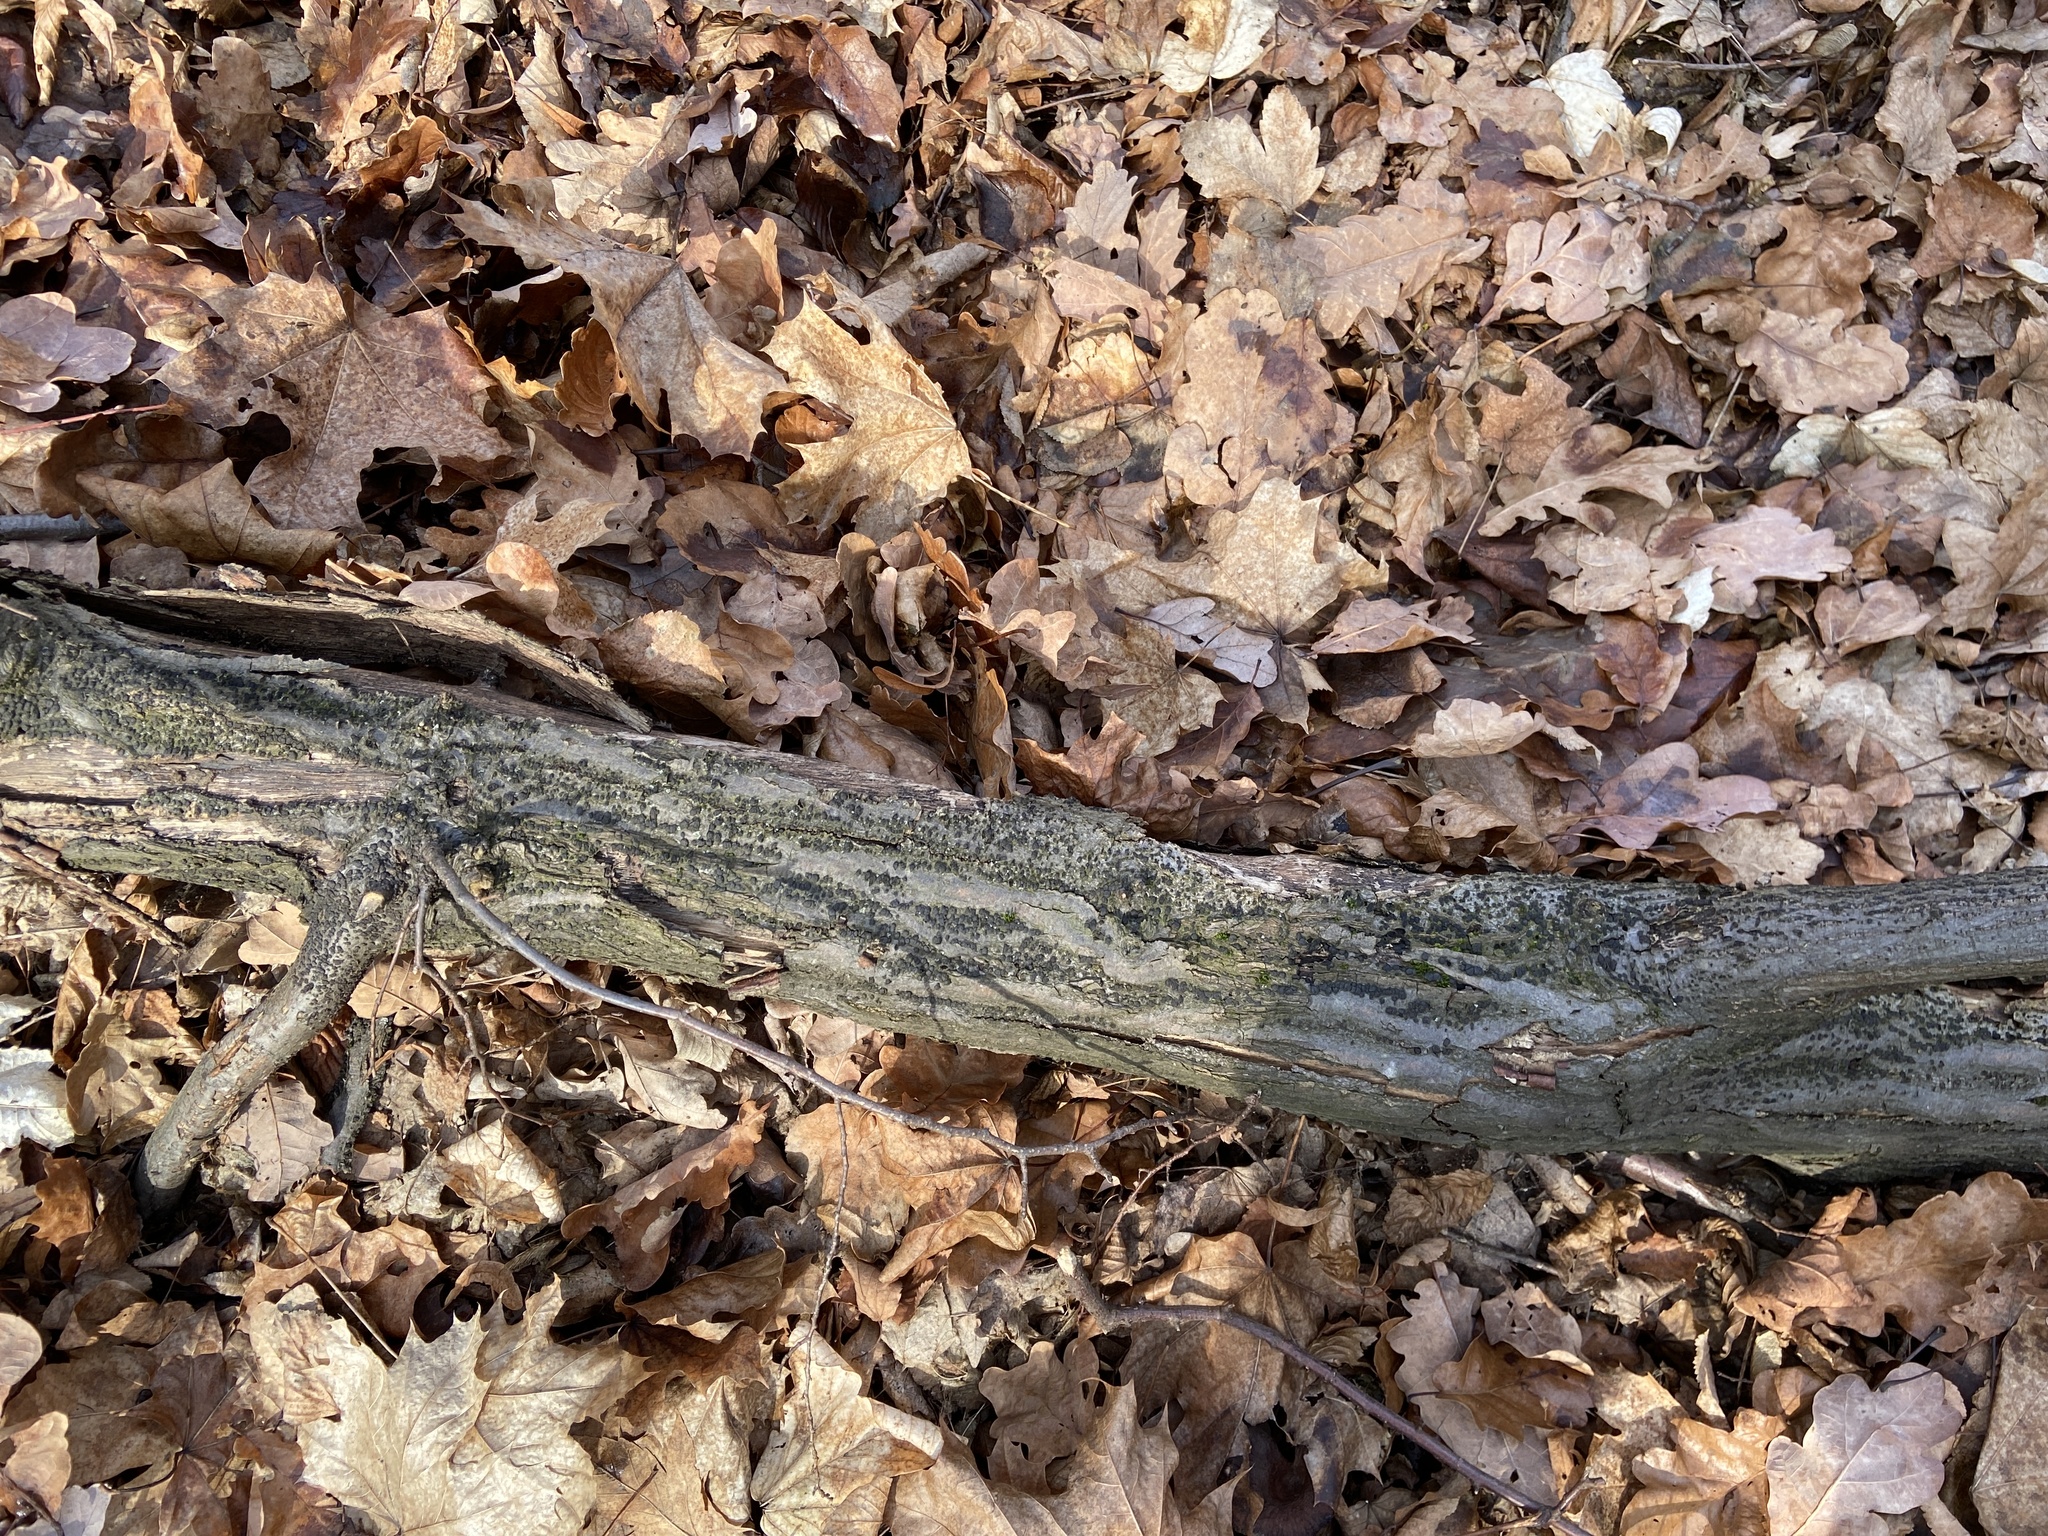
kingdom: Fungi
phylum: Ascomycota
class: Sordariomycetes
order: Xylariales
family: Melogrammataceae
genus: Melogramma
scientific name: Melogramma campylosporum
